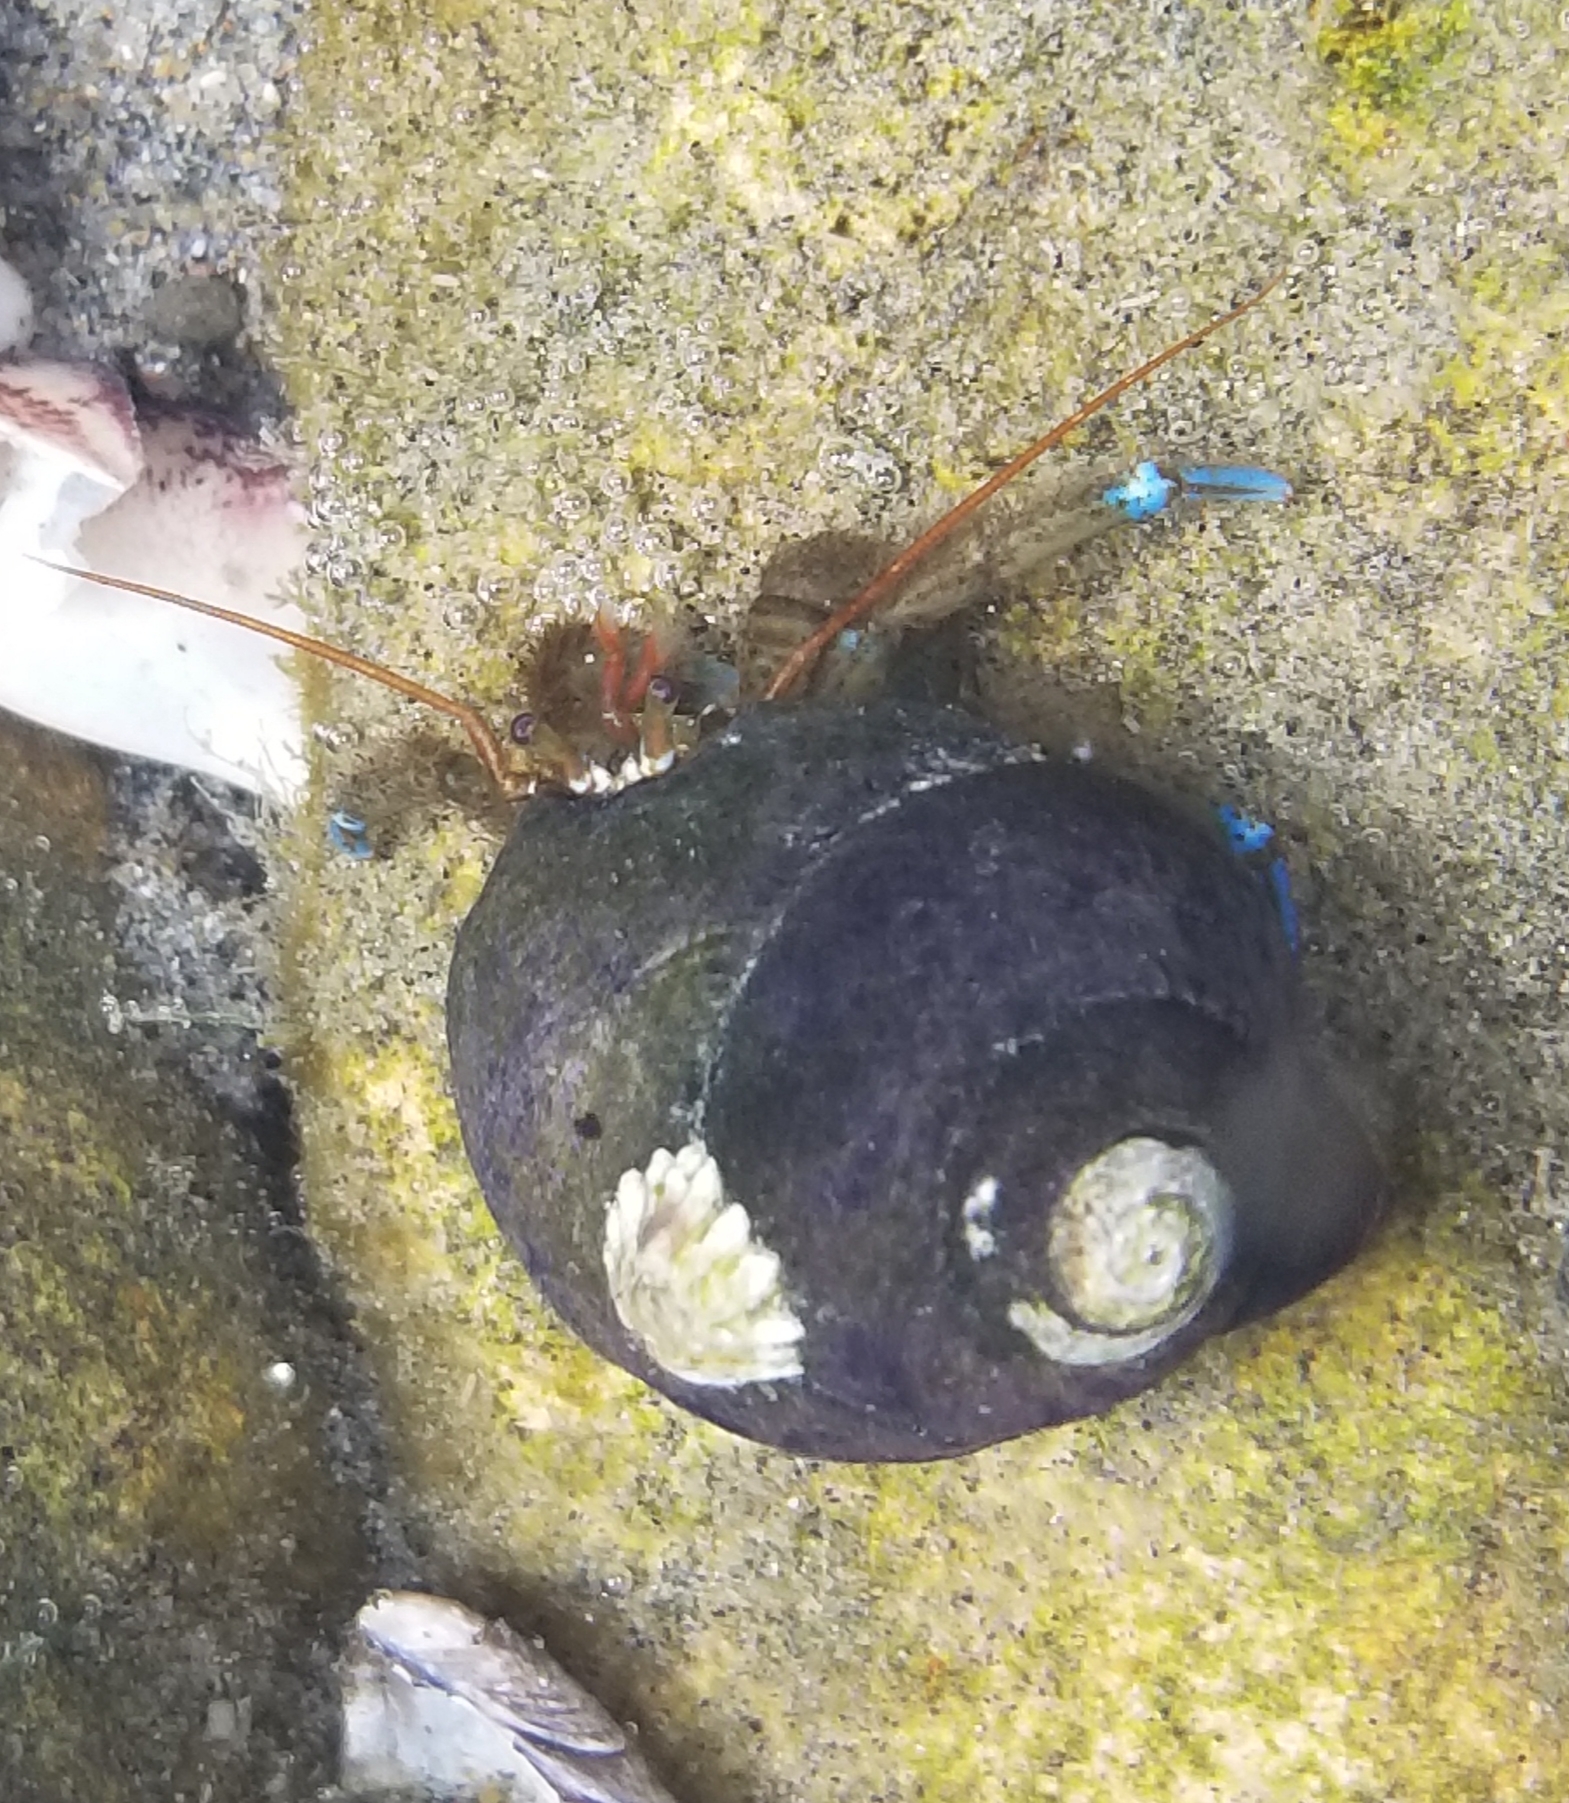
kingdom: Animalia
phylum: Arthropoda
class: Malacostraca
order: Decapoda
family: Paguridae
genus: Pagurus
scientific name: Pagurus samuelis
